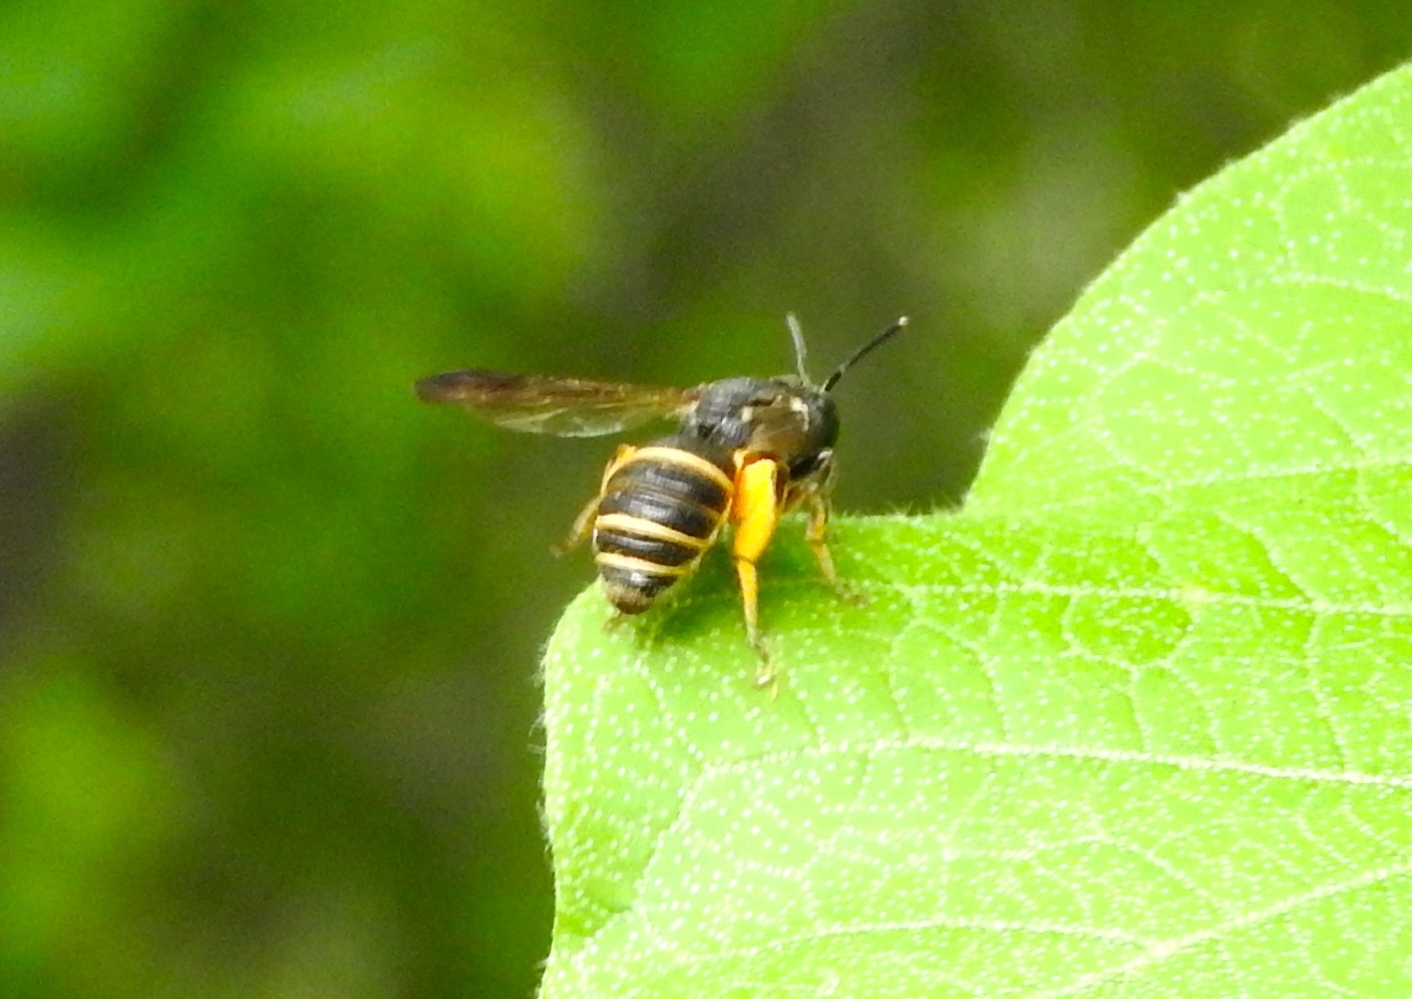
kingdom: Animalia
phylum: Arthropoda
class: Insecta
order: Hymenoptera
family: Colletidae
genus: Eulonchopria
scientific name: Eulonchopria
